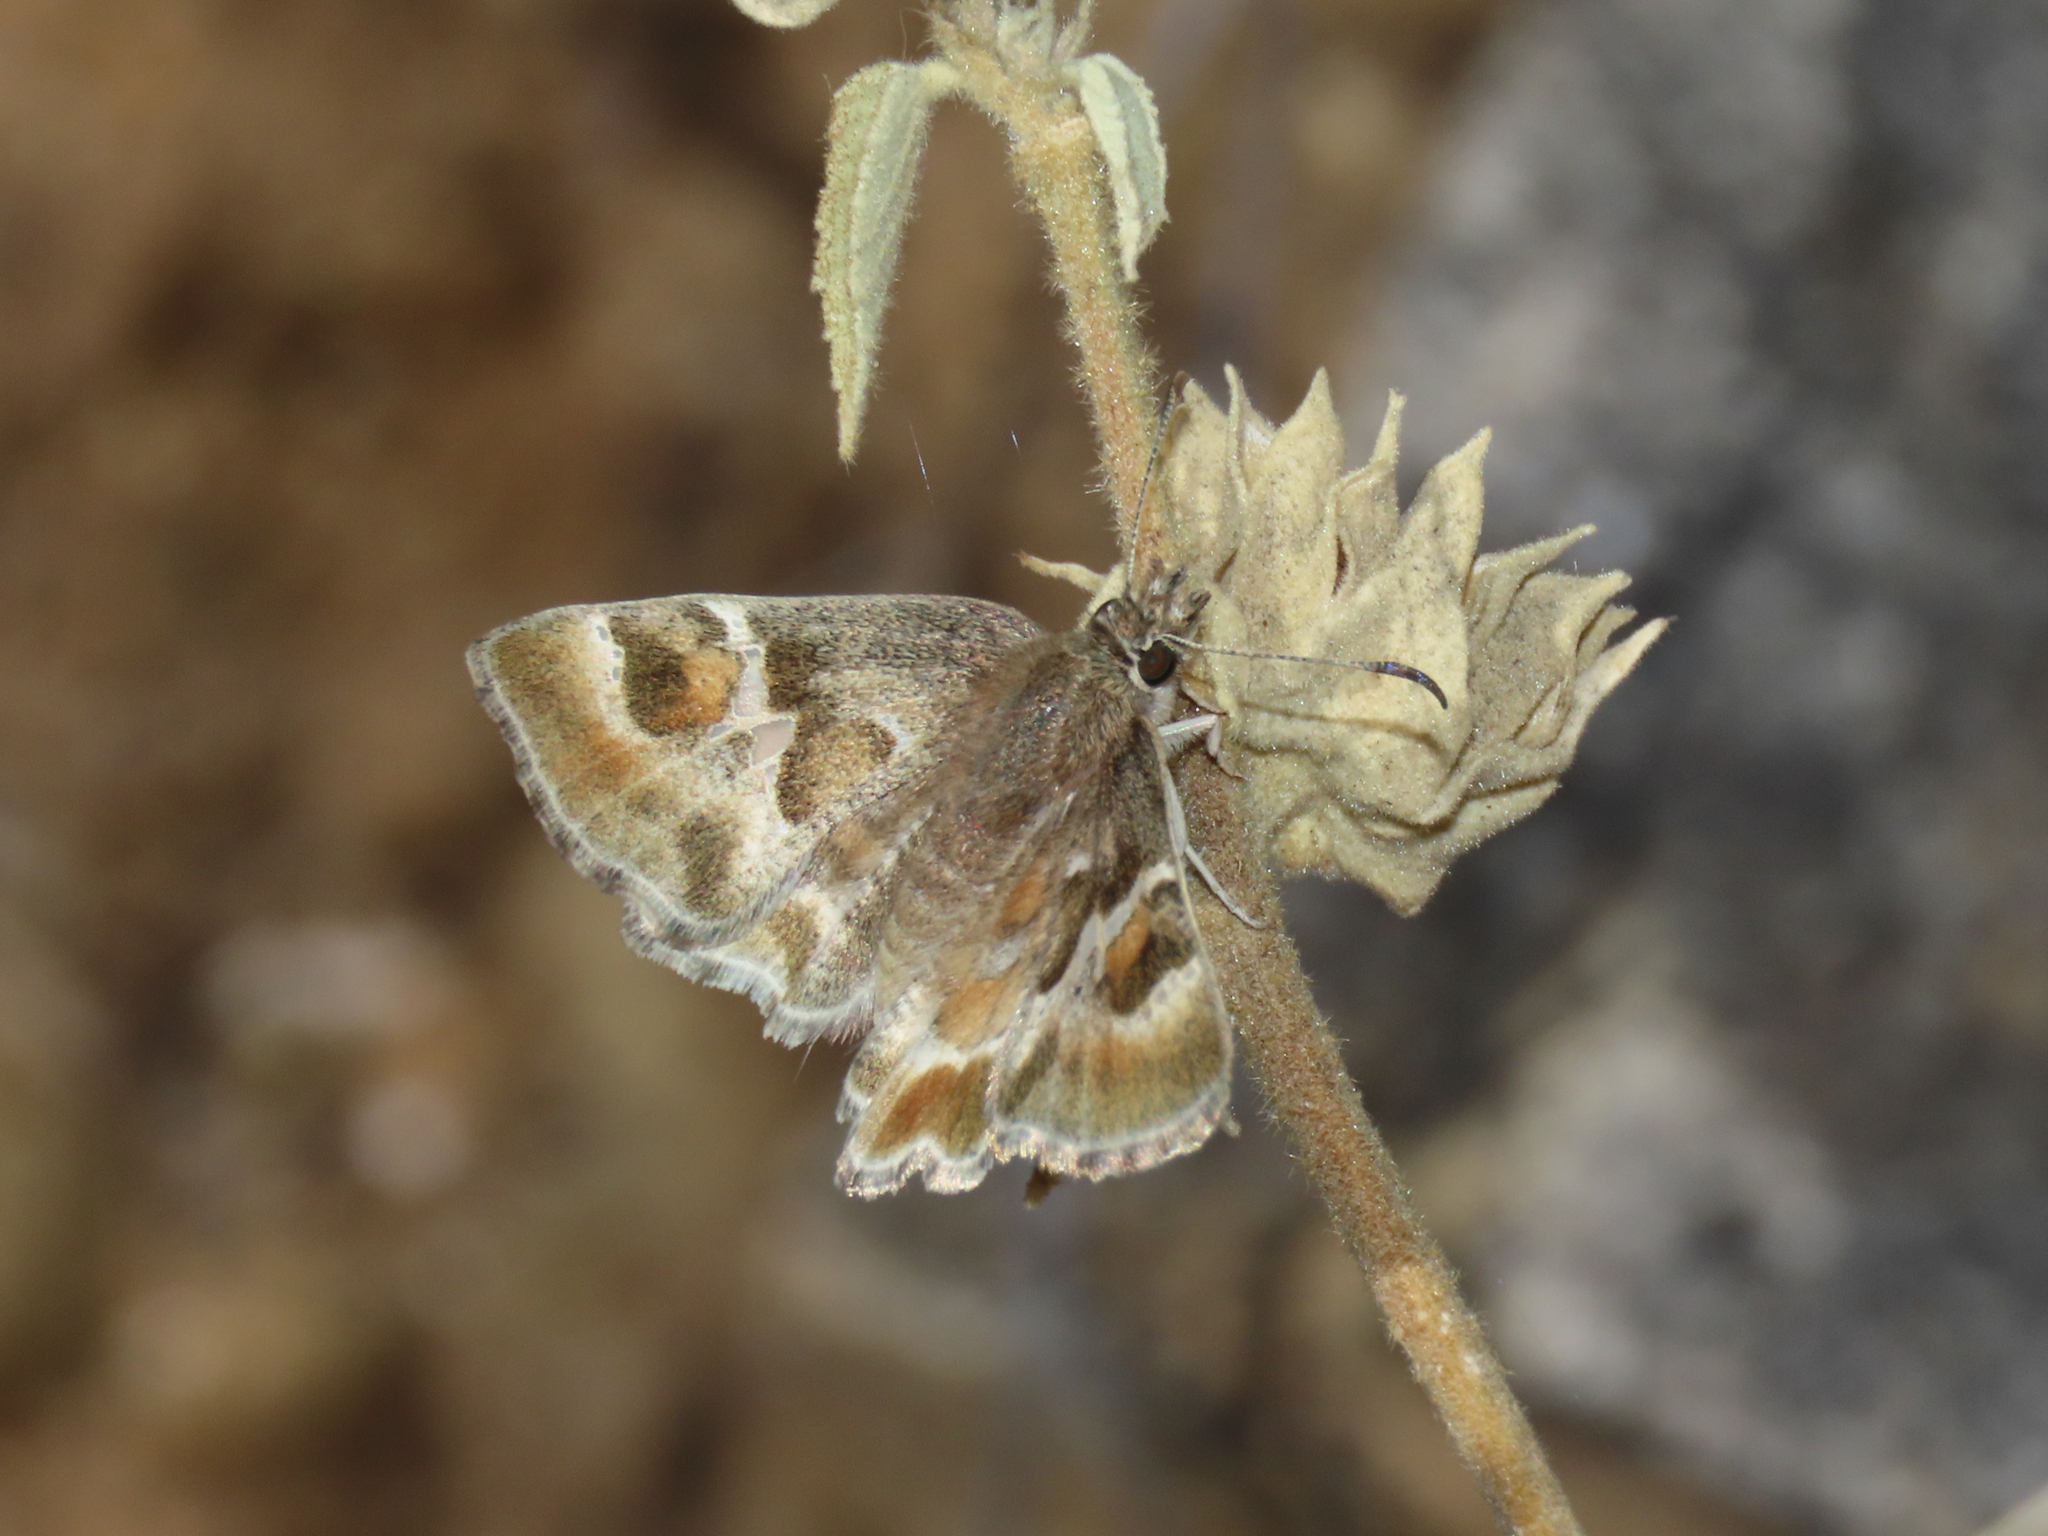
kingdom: Animalia
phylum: Arthropoda
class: Insecta
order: Lepidoptera
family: Hesperiidae
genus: Systasea
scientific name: Systasea zampa
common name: Arizona powdered-skipper
